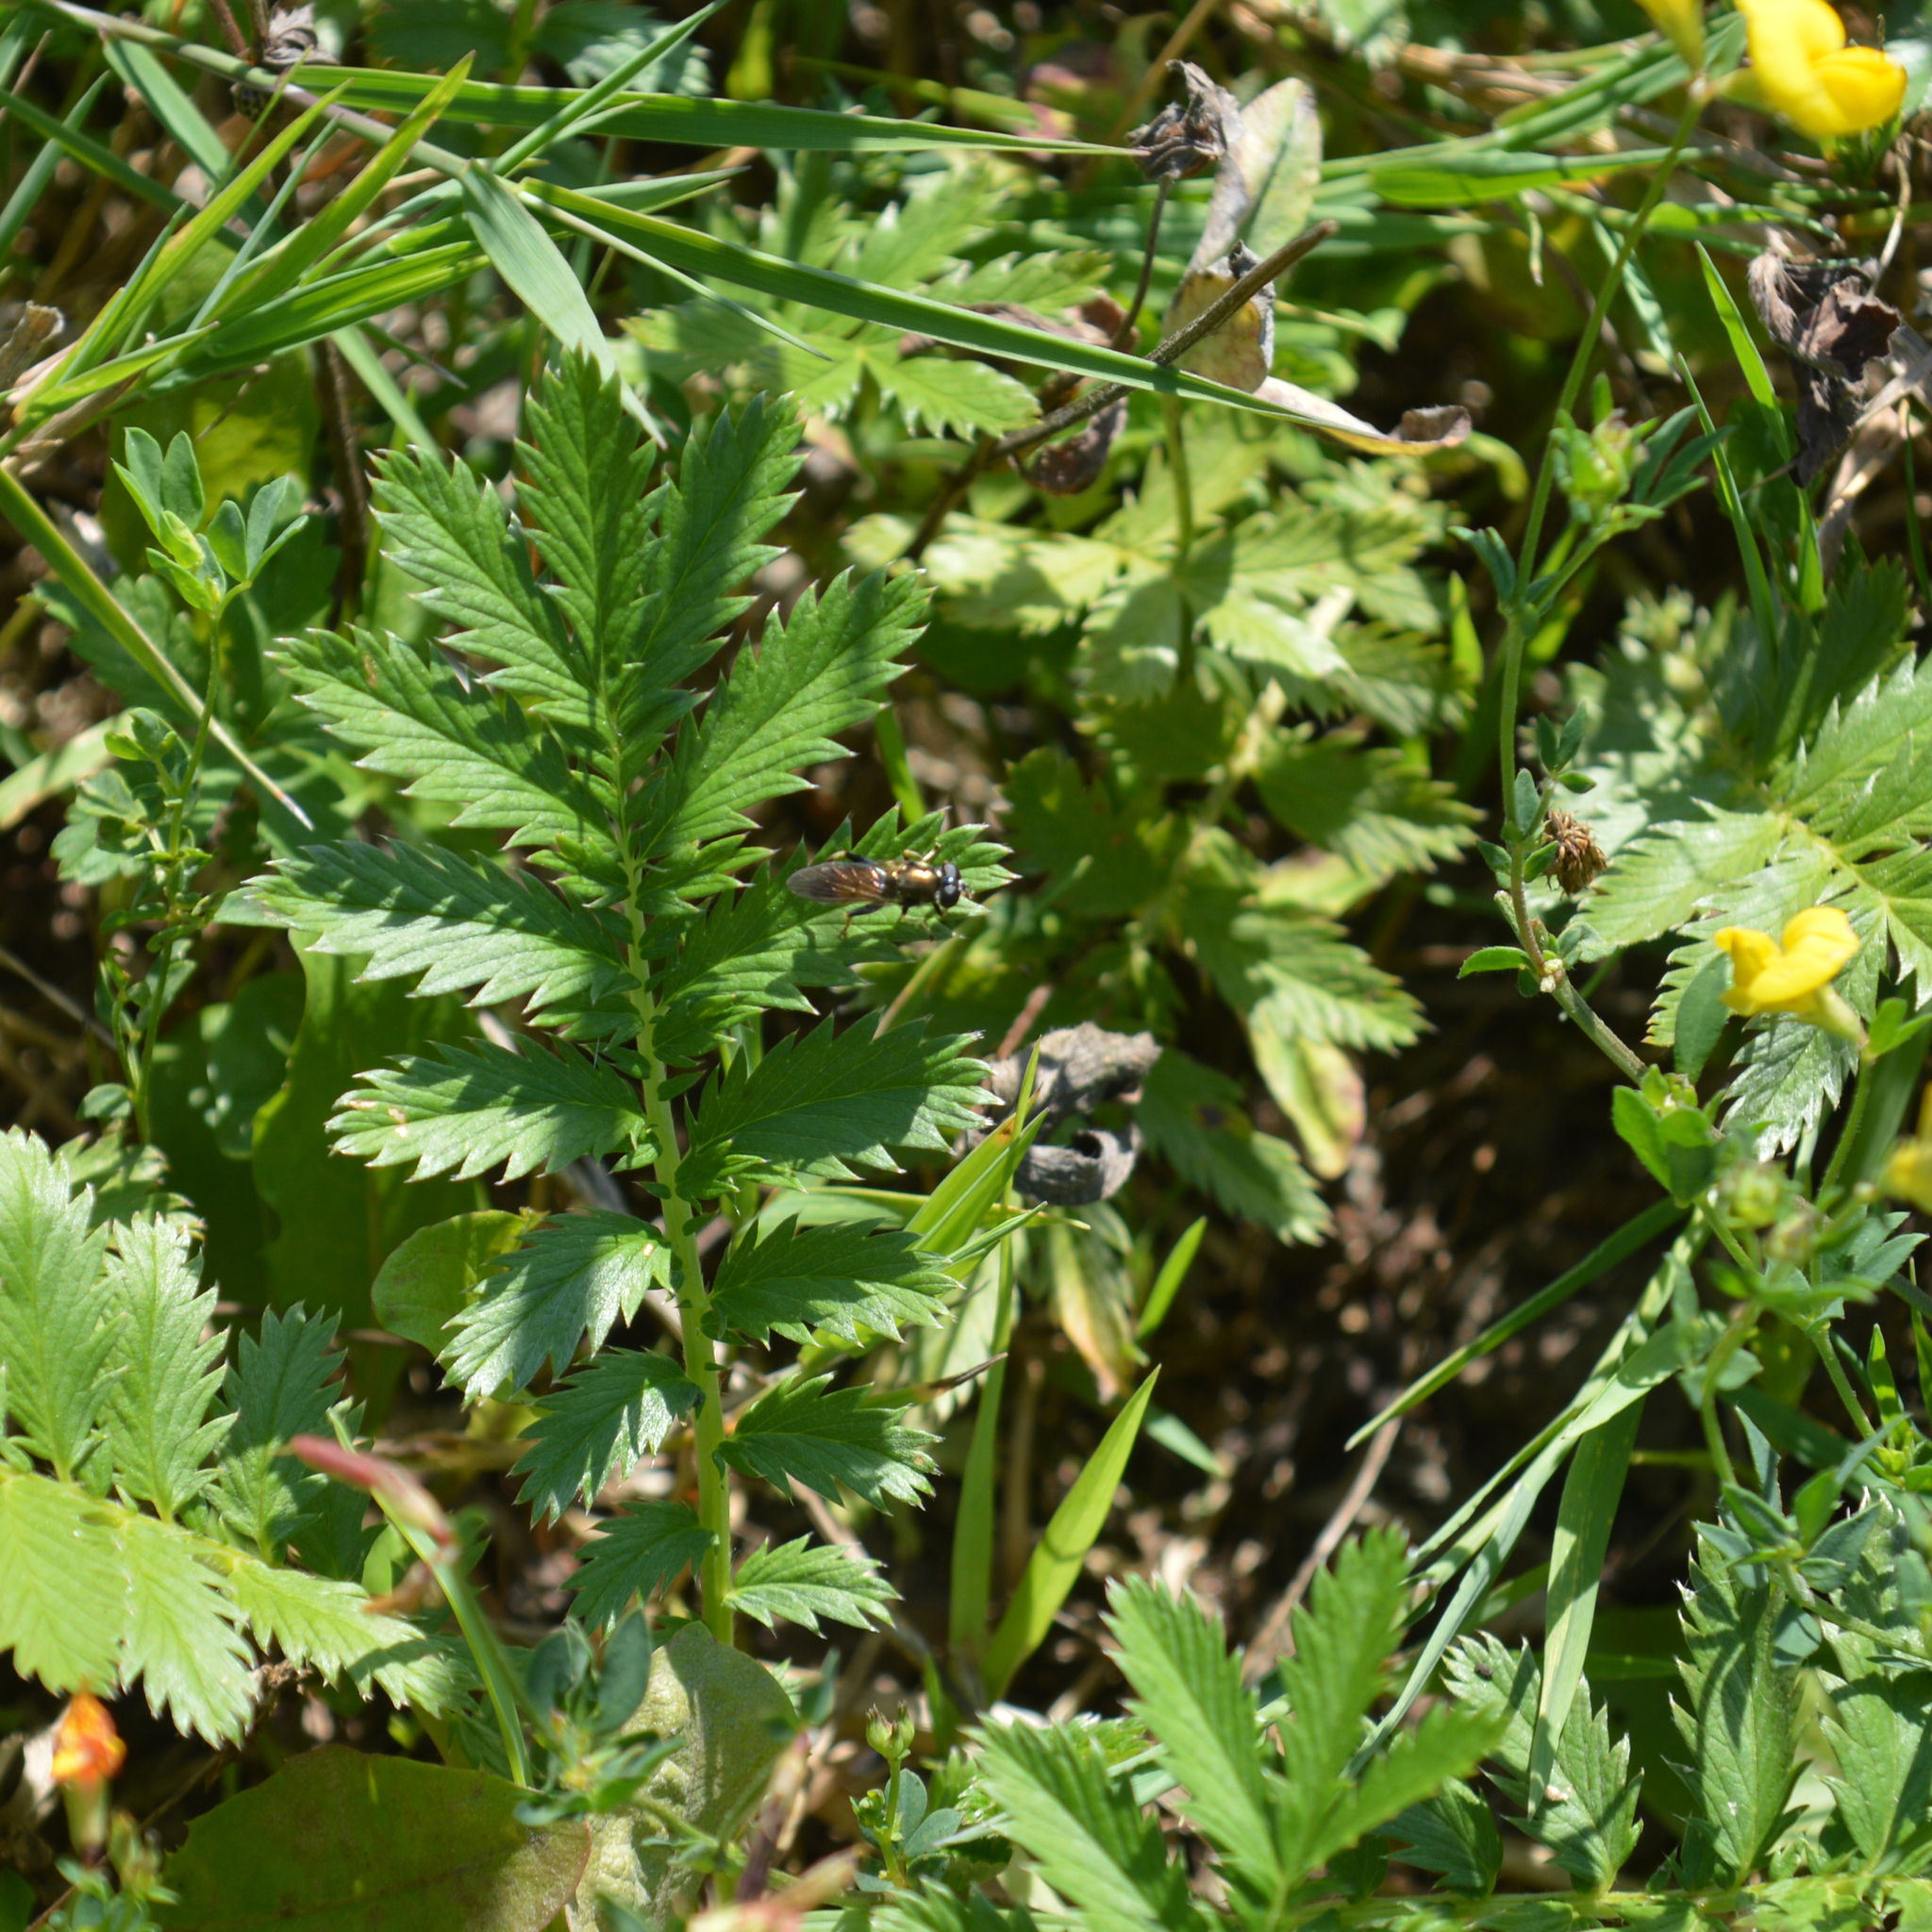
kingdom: Animalia
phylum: Arthropoda
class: Insecta
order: Diptera
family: Syrphidae
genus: Xylota
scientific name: Xylota segnis
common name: Brown-toed forest fly
